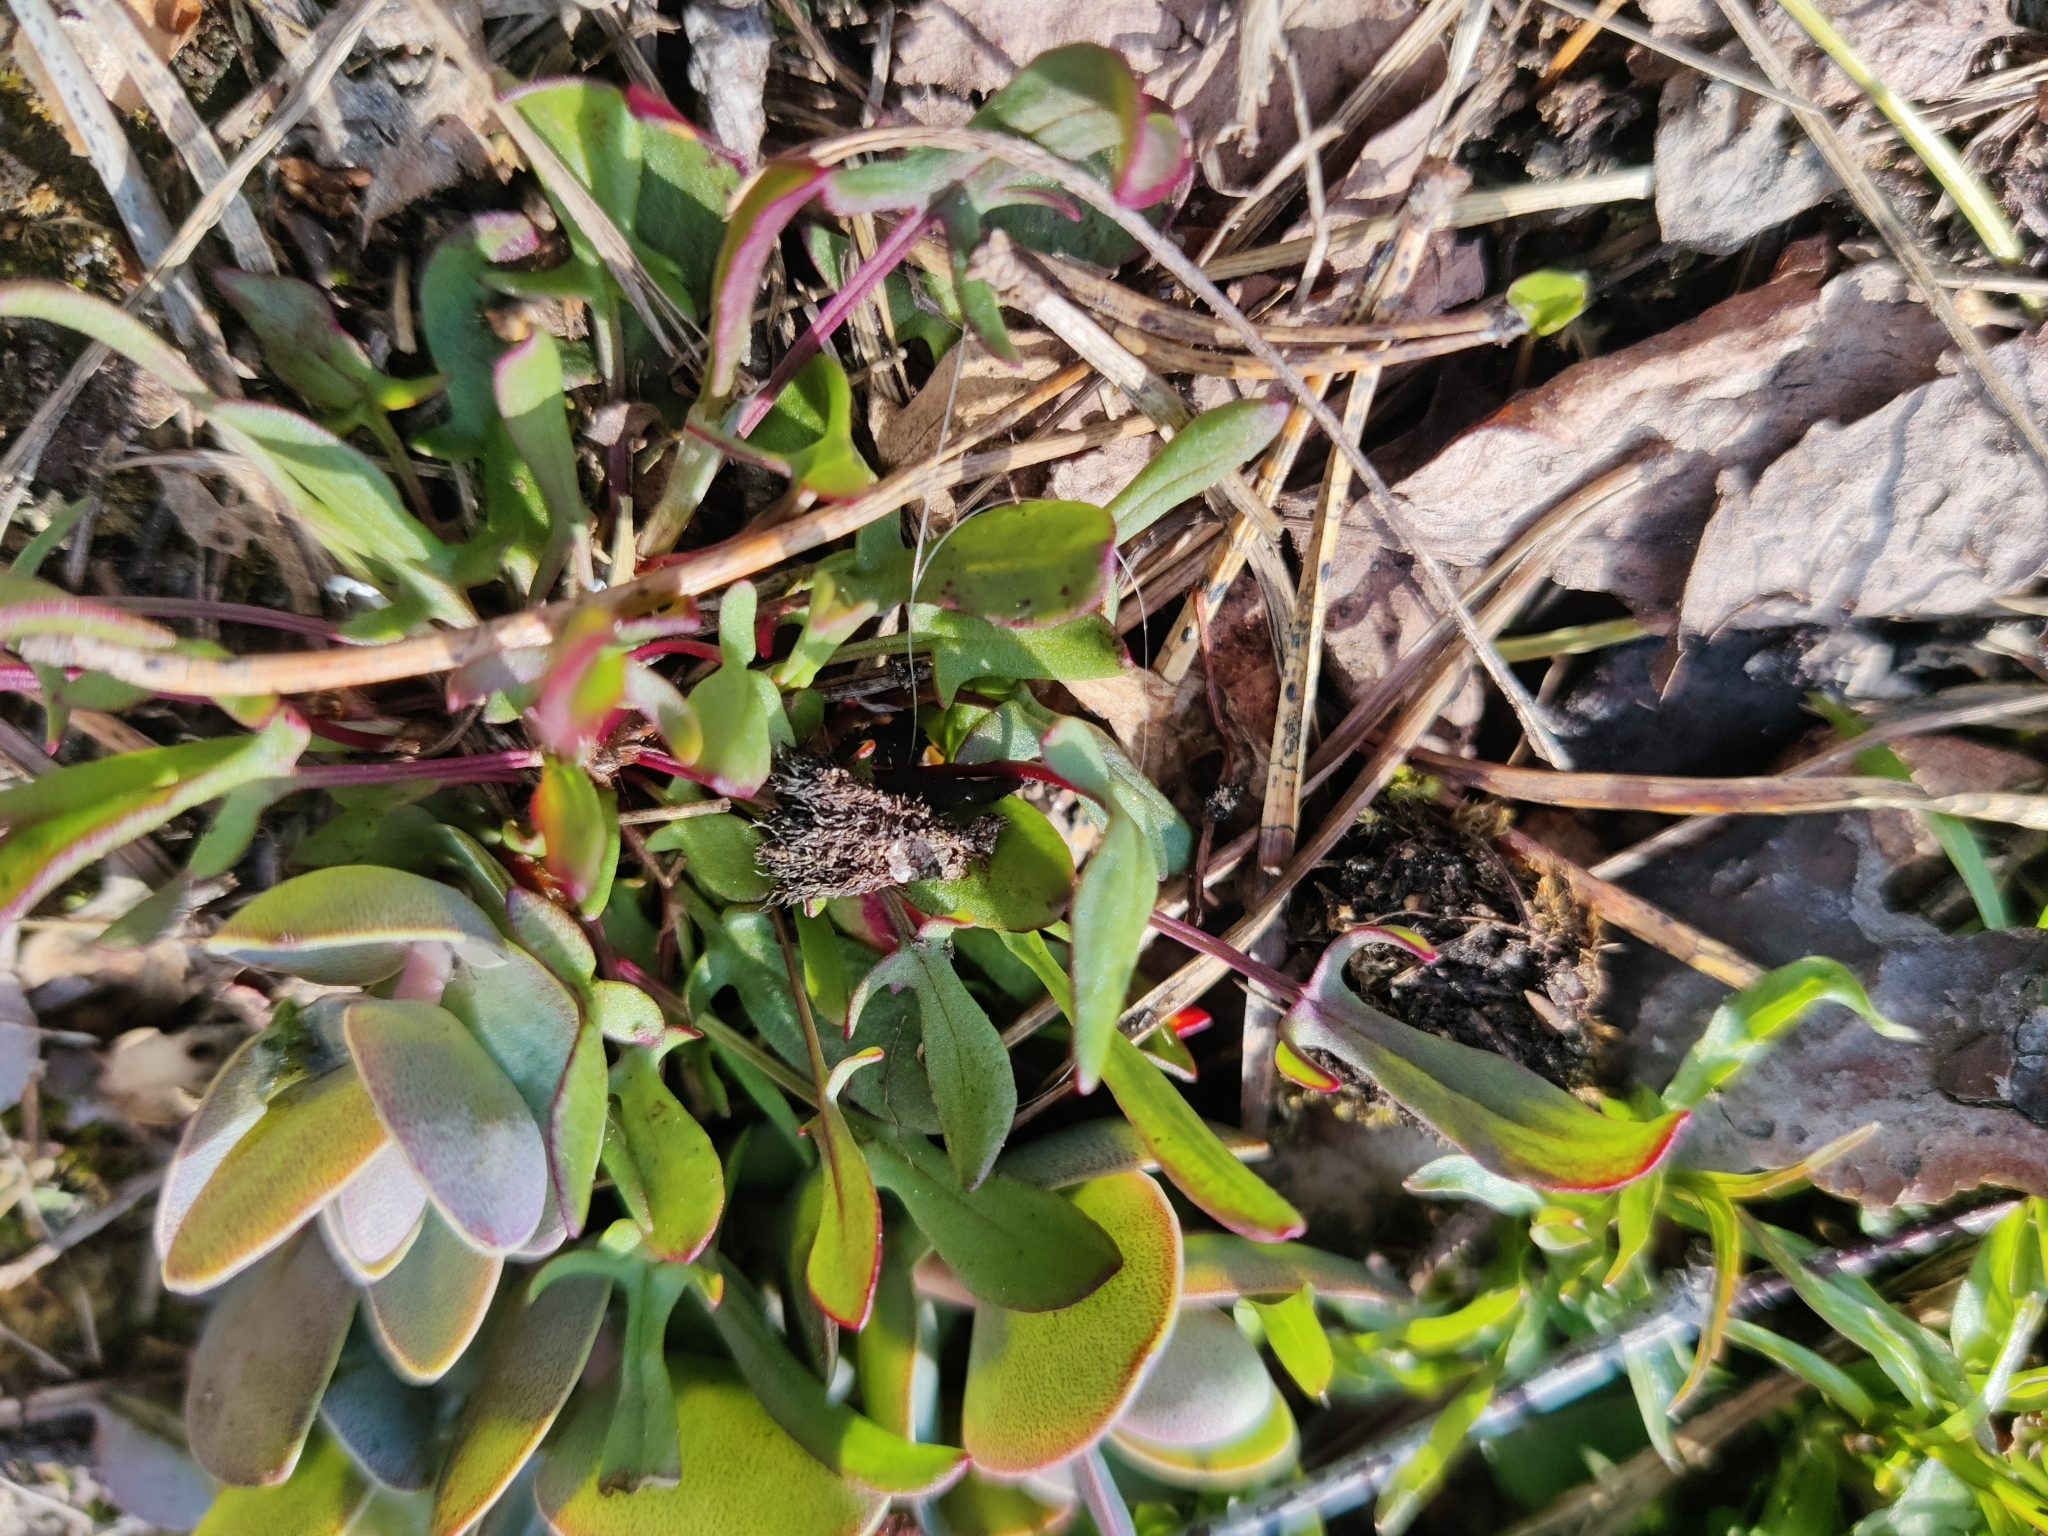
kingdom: Plantae
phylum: Tracheophyta
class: Magnoliopsida
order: Caryophyllales
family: Polygonaceae
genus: Rumex
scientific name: Rumex acetosella
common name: Common sheep sorrel
